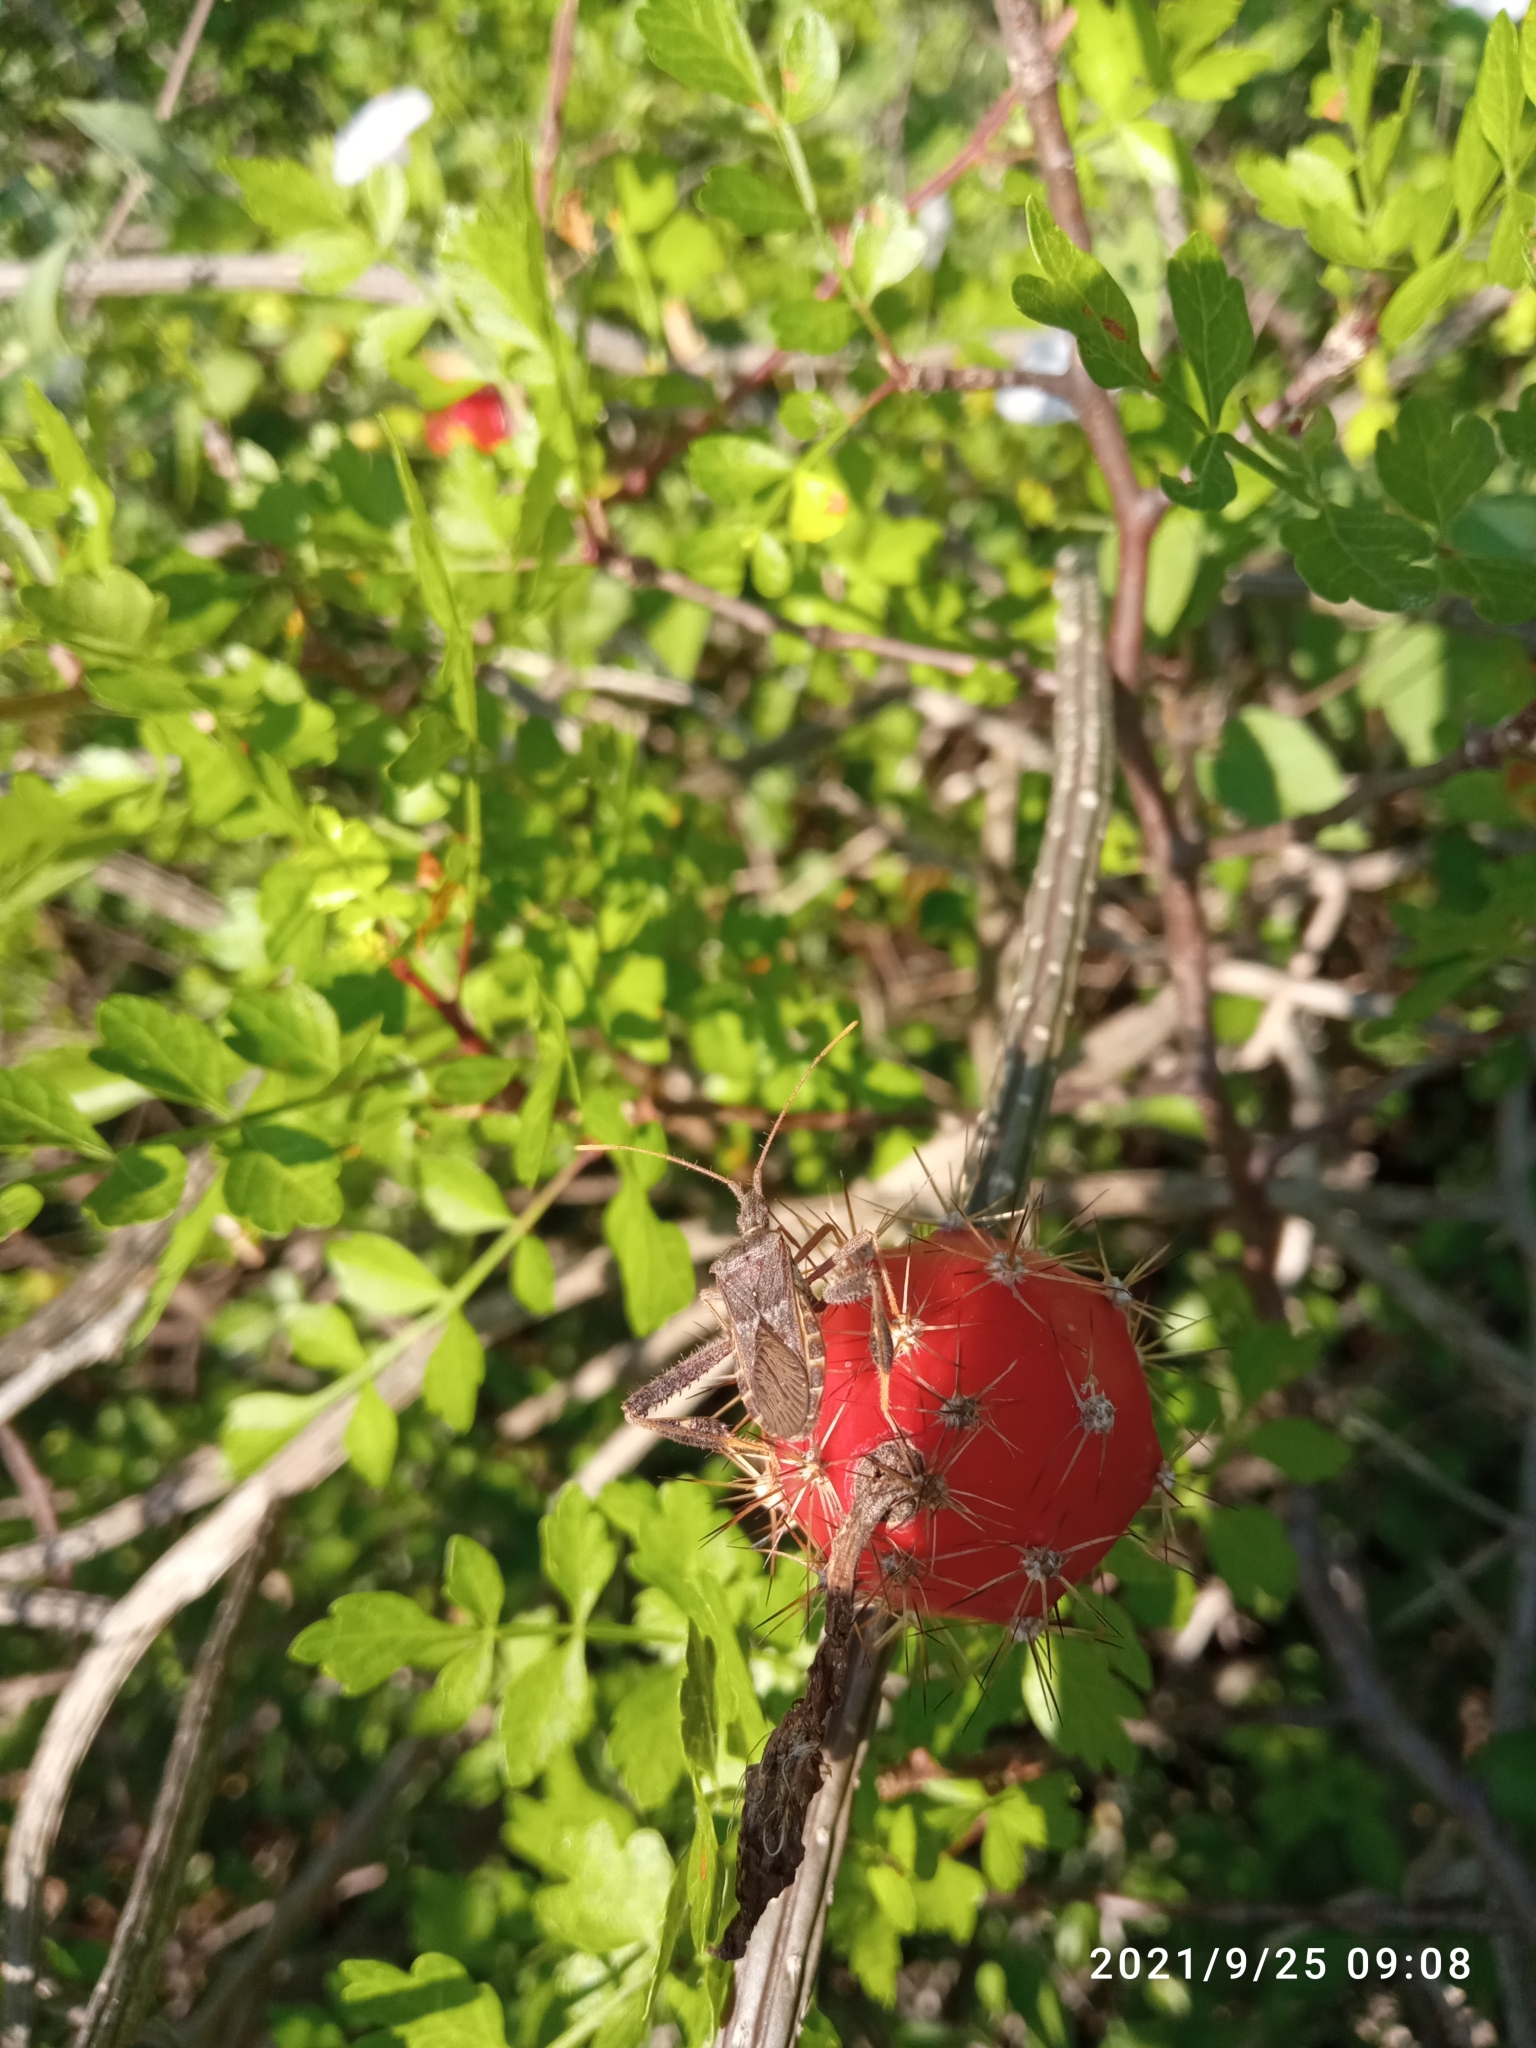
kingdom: Plantae
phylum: Tracheophyta
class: Magnoliopsida
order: Caryophyllales
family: Cactaceae
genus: Peniocereus
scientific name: Peniocereus striatus
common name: Gearstem cactus
